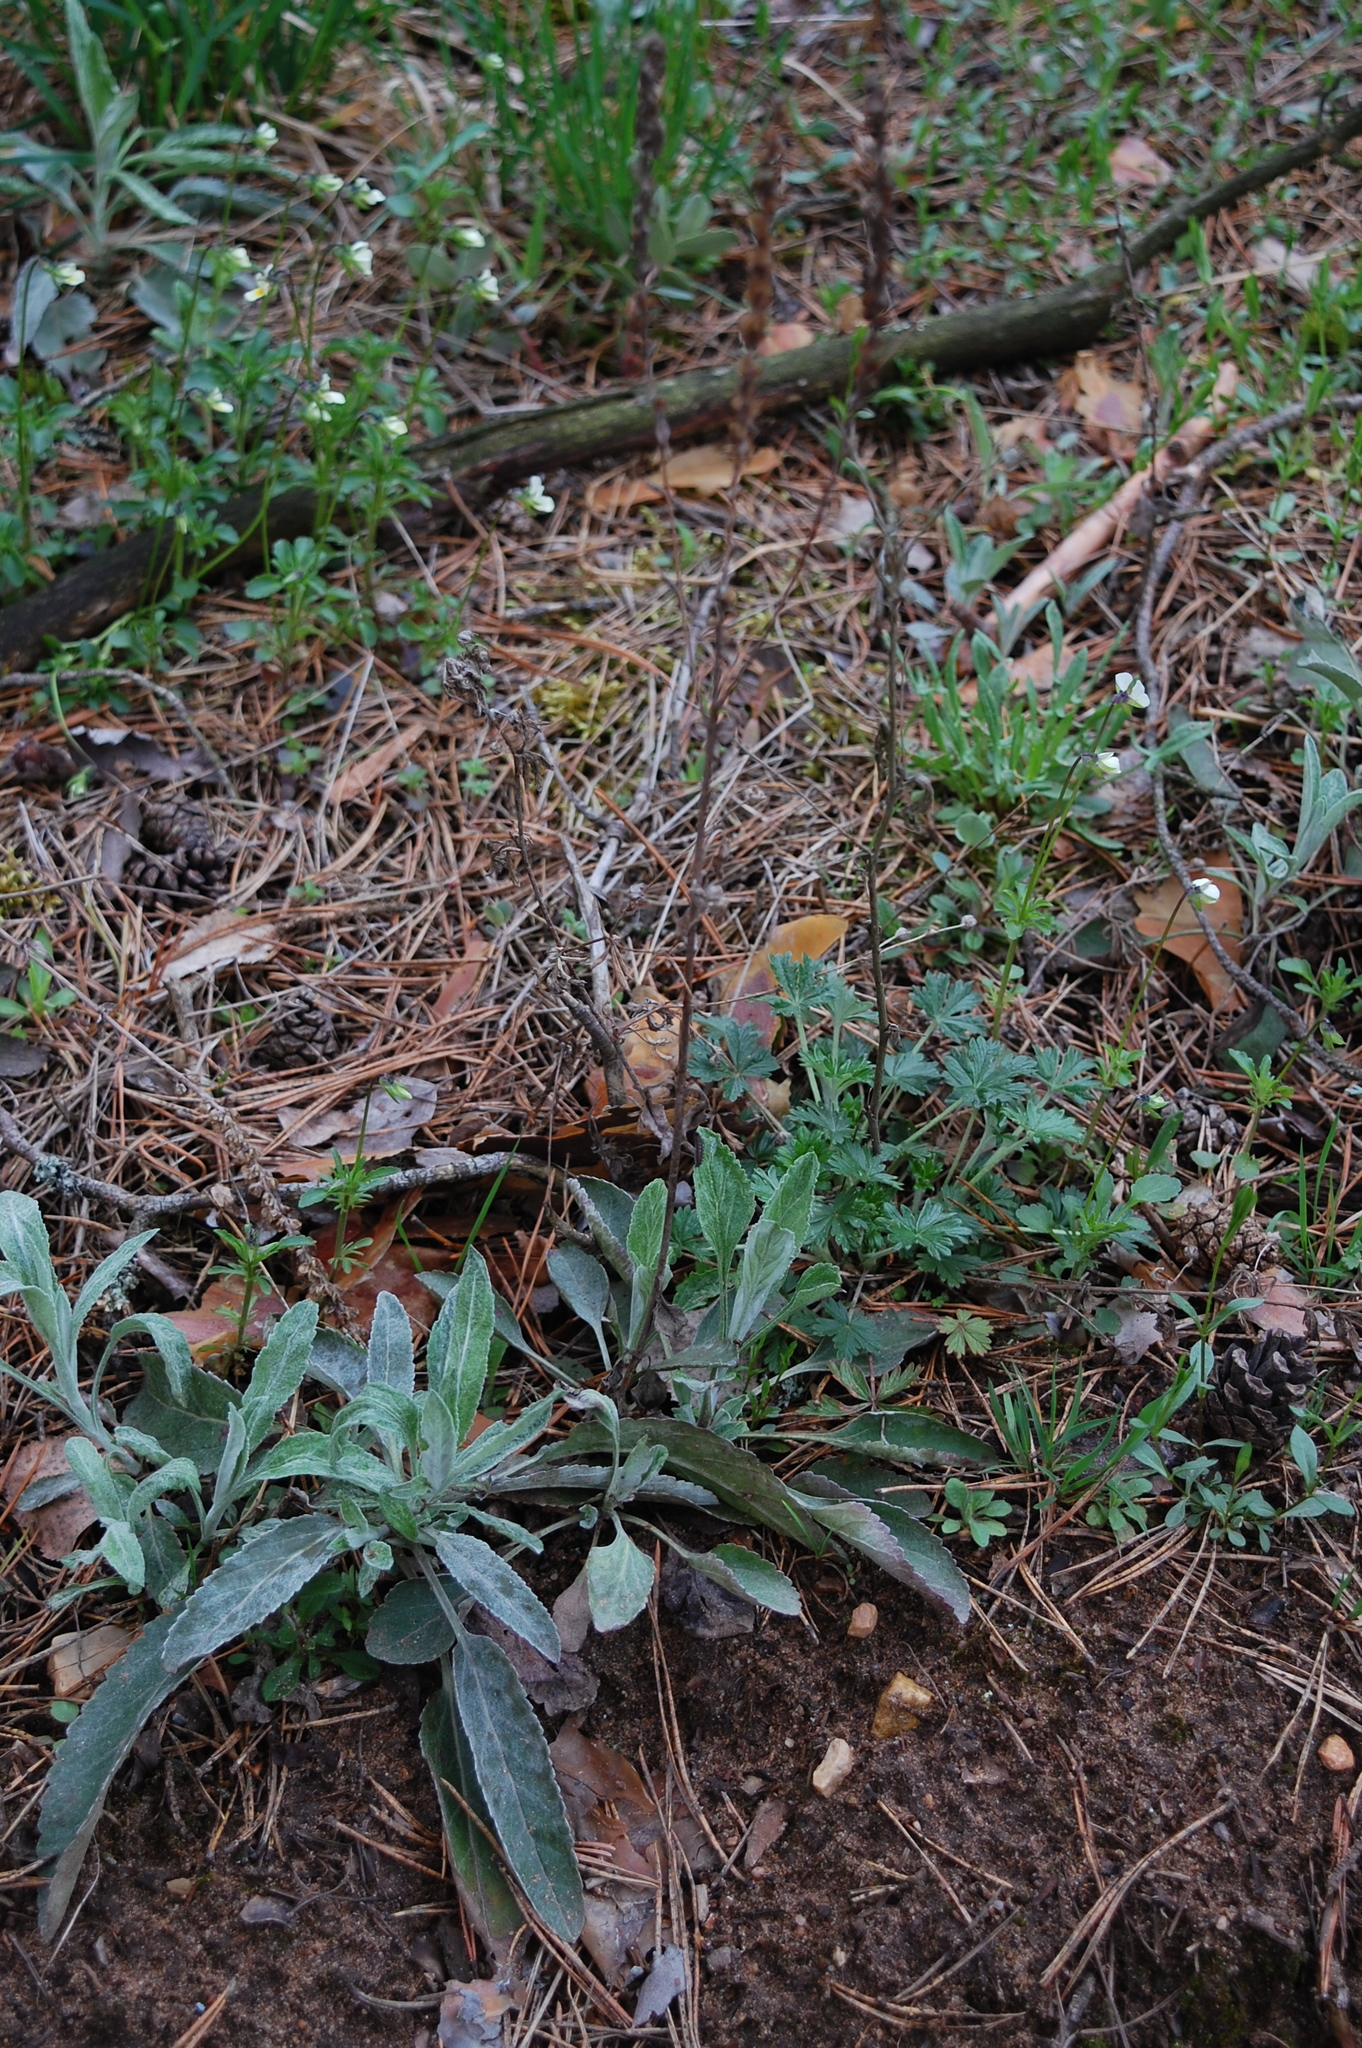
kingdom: Plantae
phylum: Tracheophyta
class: Magnoliopsida
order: Lamiales
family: Plantaginaceae
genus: Veronica
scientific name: Veronica incana
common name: Silver speedwell
